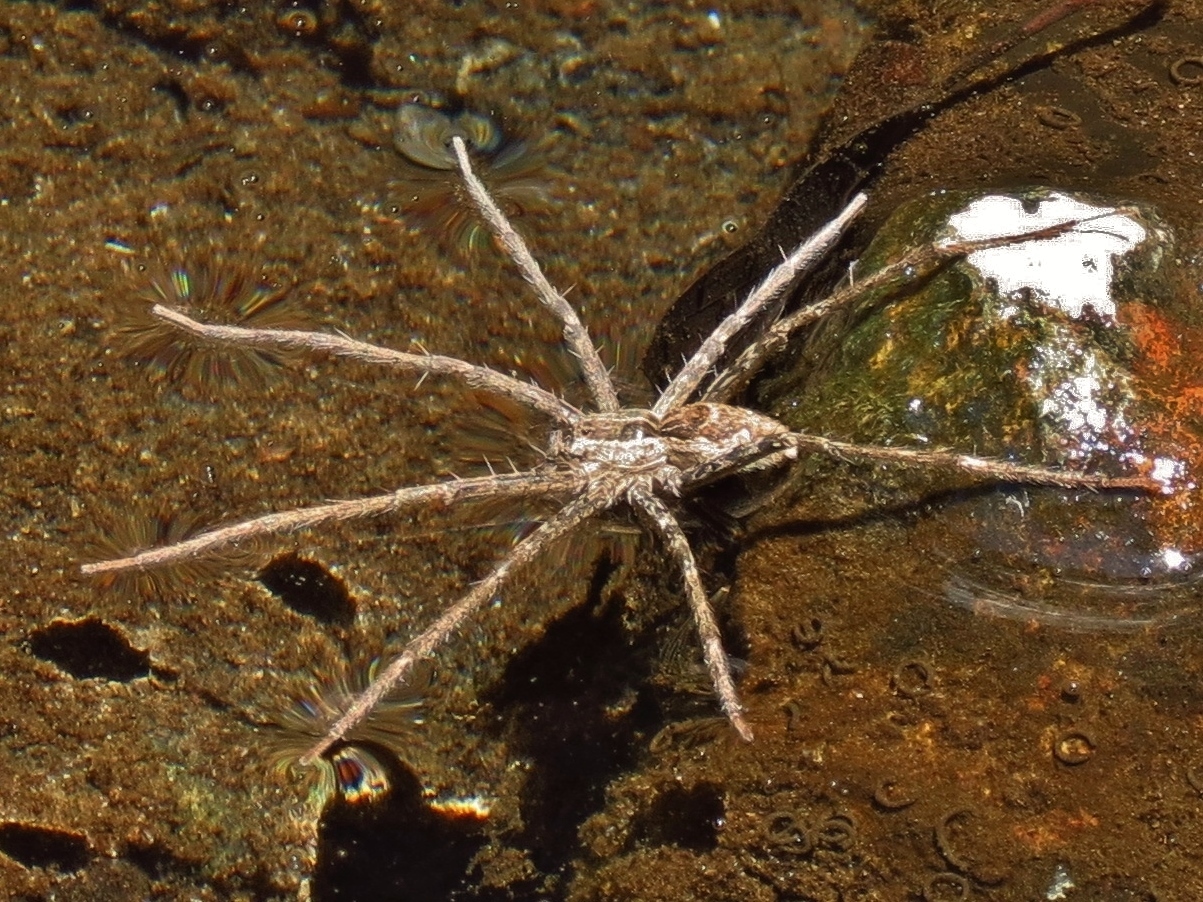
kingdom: Animalia
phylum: Arthropoda
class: Arachnida
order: Araneae
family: Pisauridae
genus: Tinus
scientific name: Tinus peregrinus
